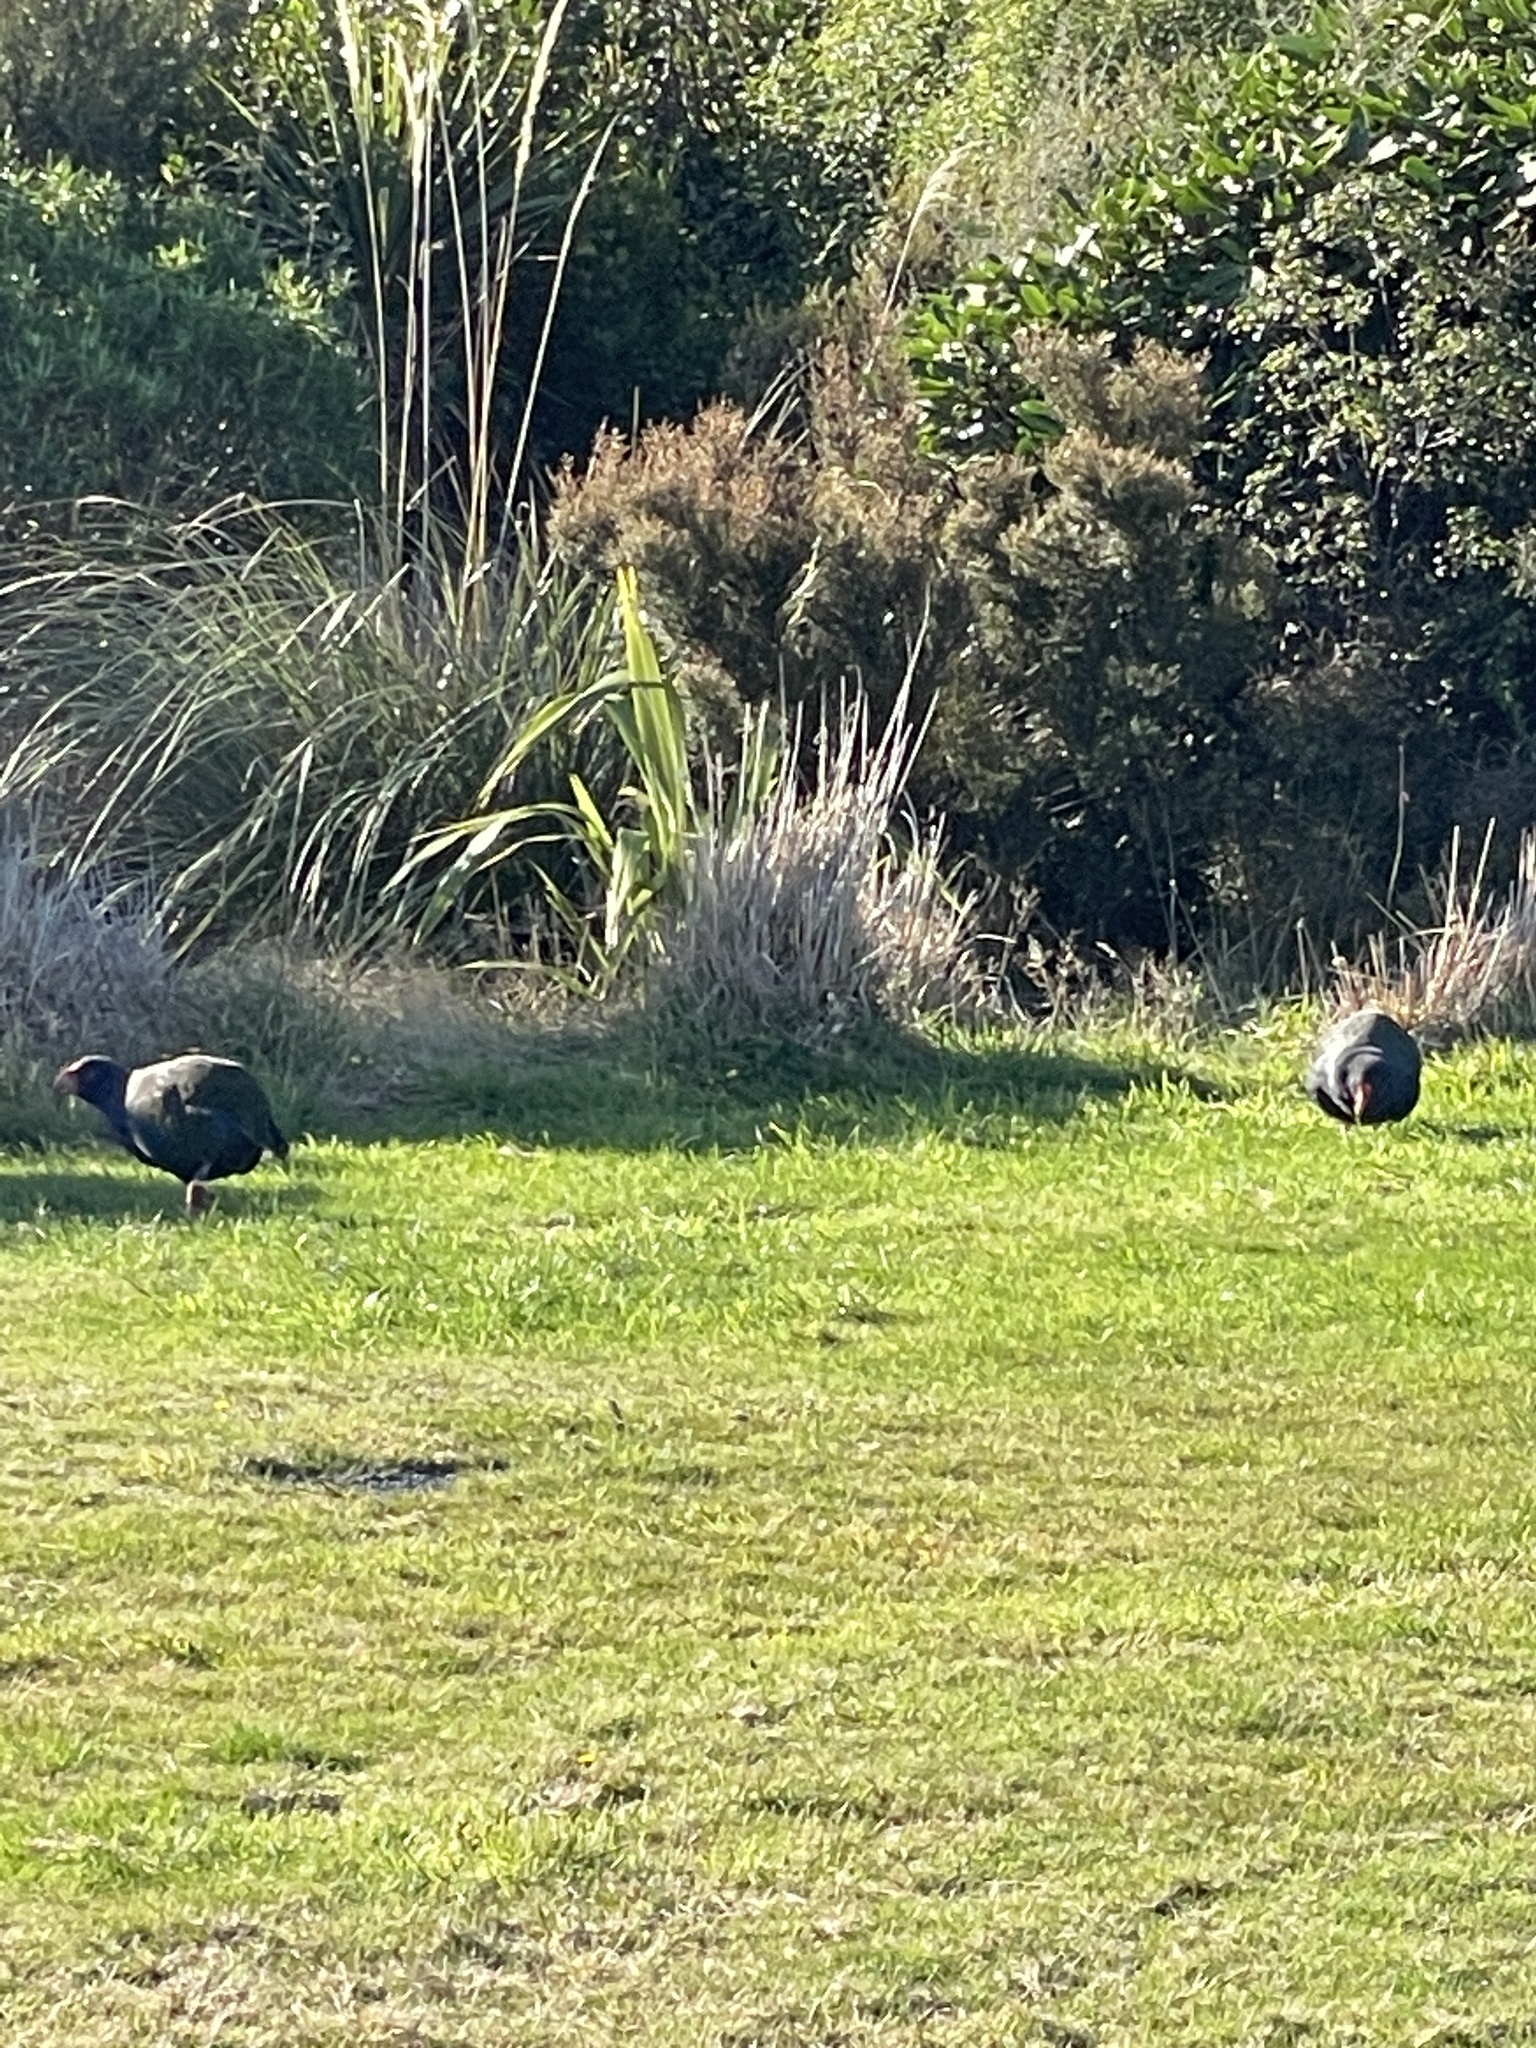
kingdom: Animalia
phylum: Chordata
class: Aves
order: Gruiformes
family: Rallidae
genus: Porphyrio
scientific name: Porphyrio hochstetteri
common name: South island takahe
